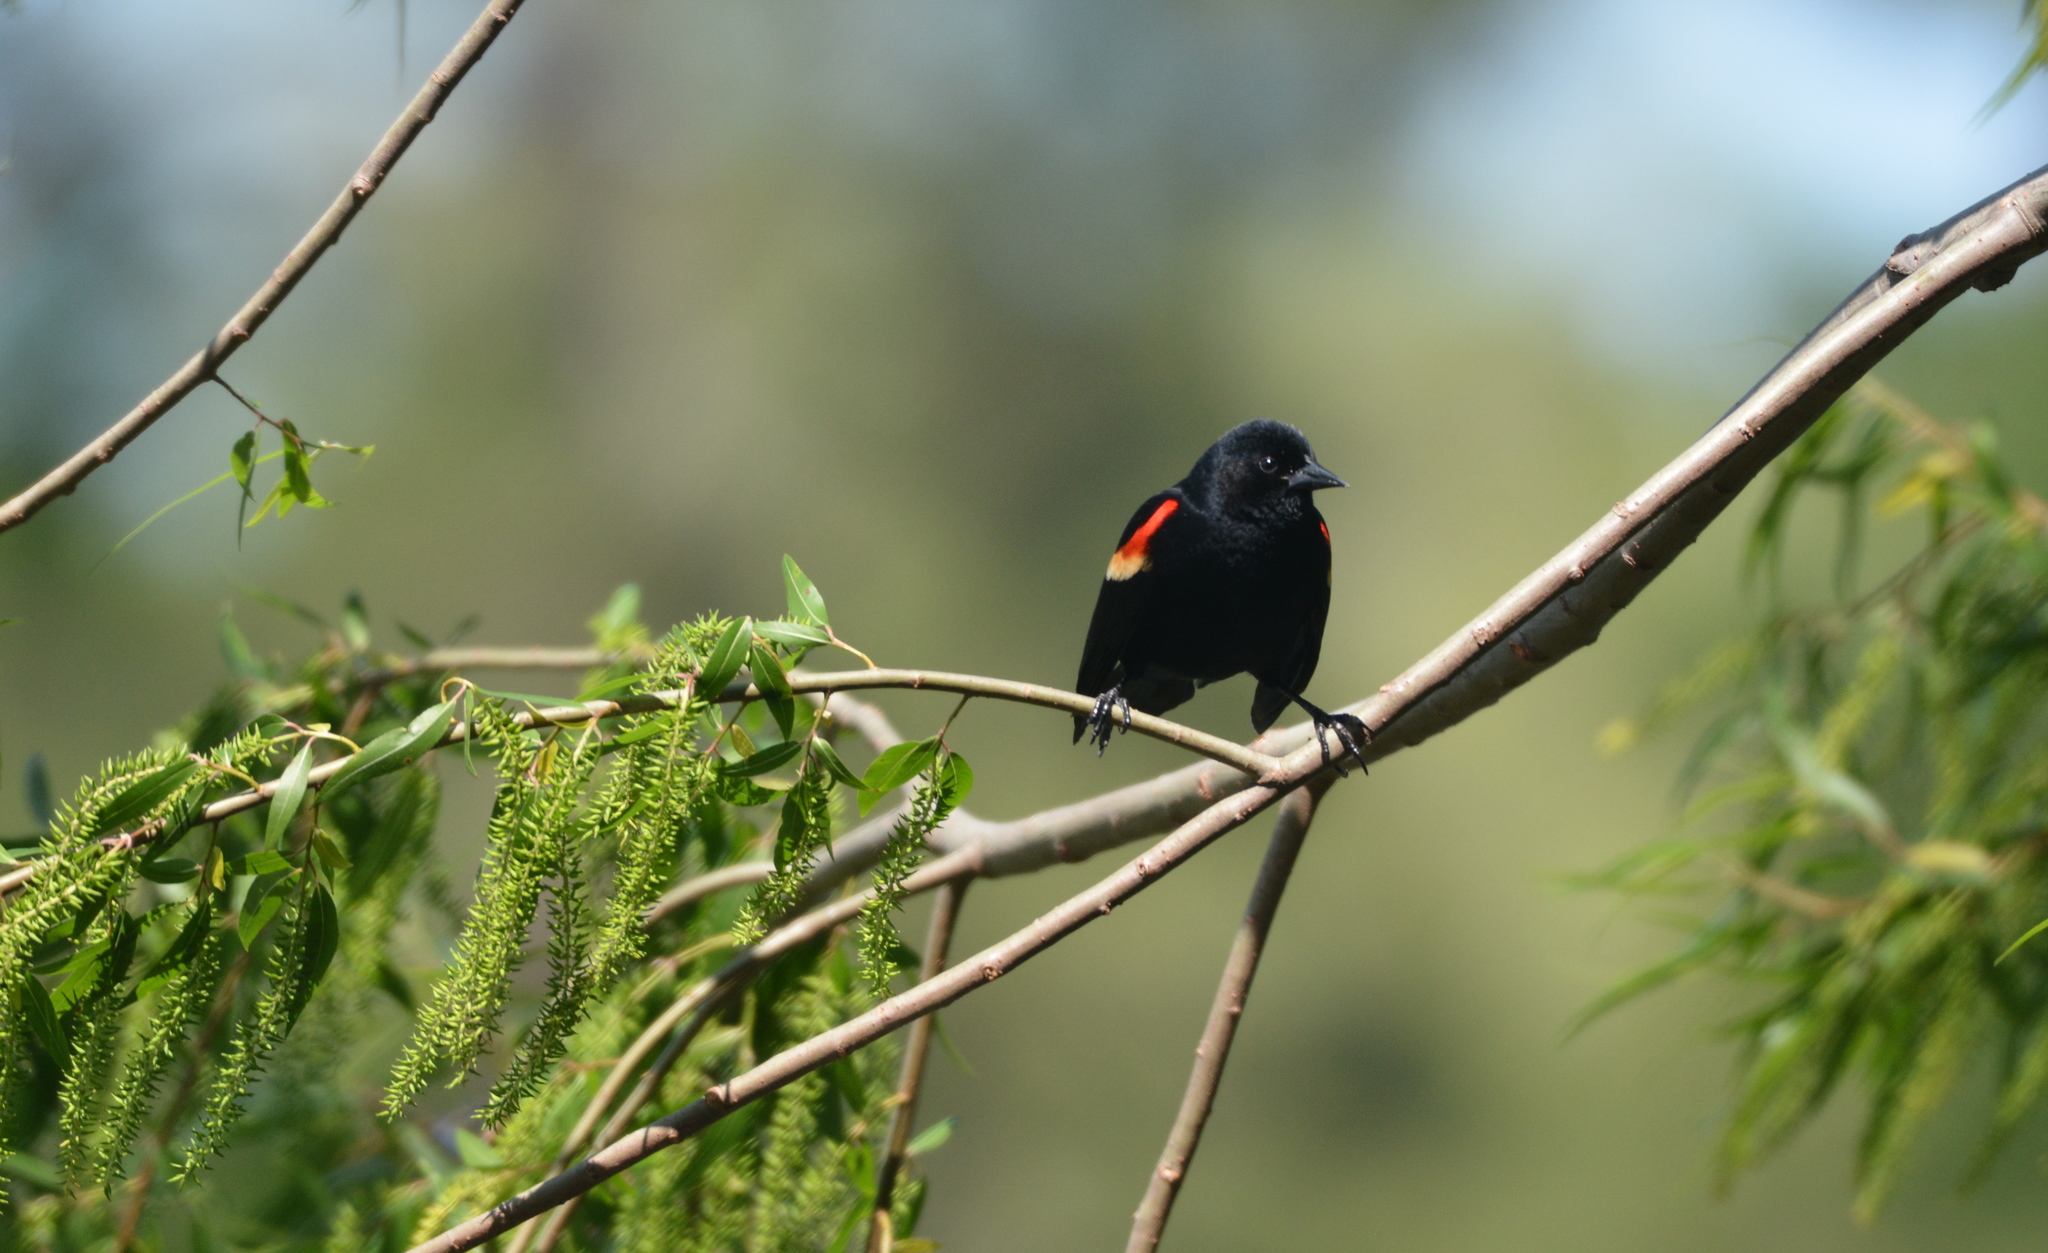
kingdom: Animalia
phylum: Chordata
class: Aves
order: Passeriformes
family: Icteridae
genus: Agelaius
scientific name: Agelaius phoeniceus
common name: Red-winged blackbird
